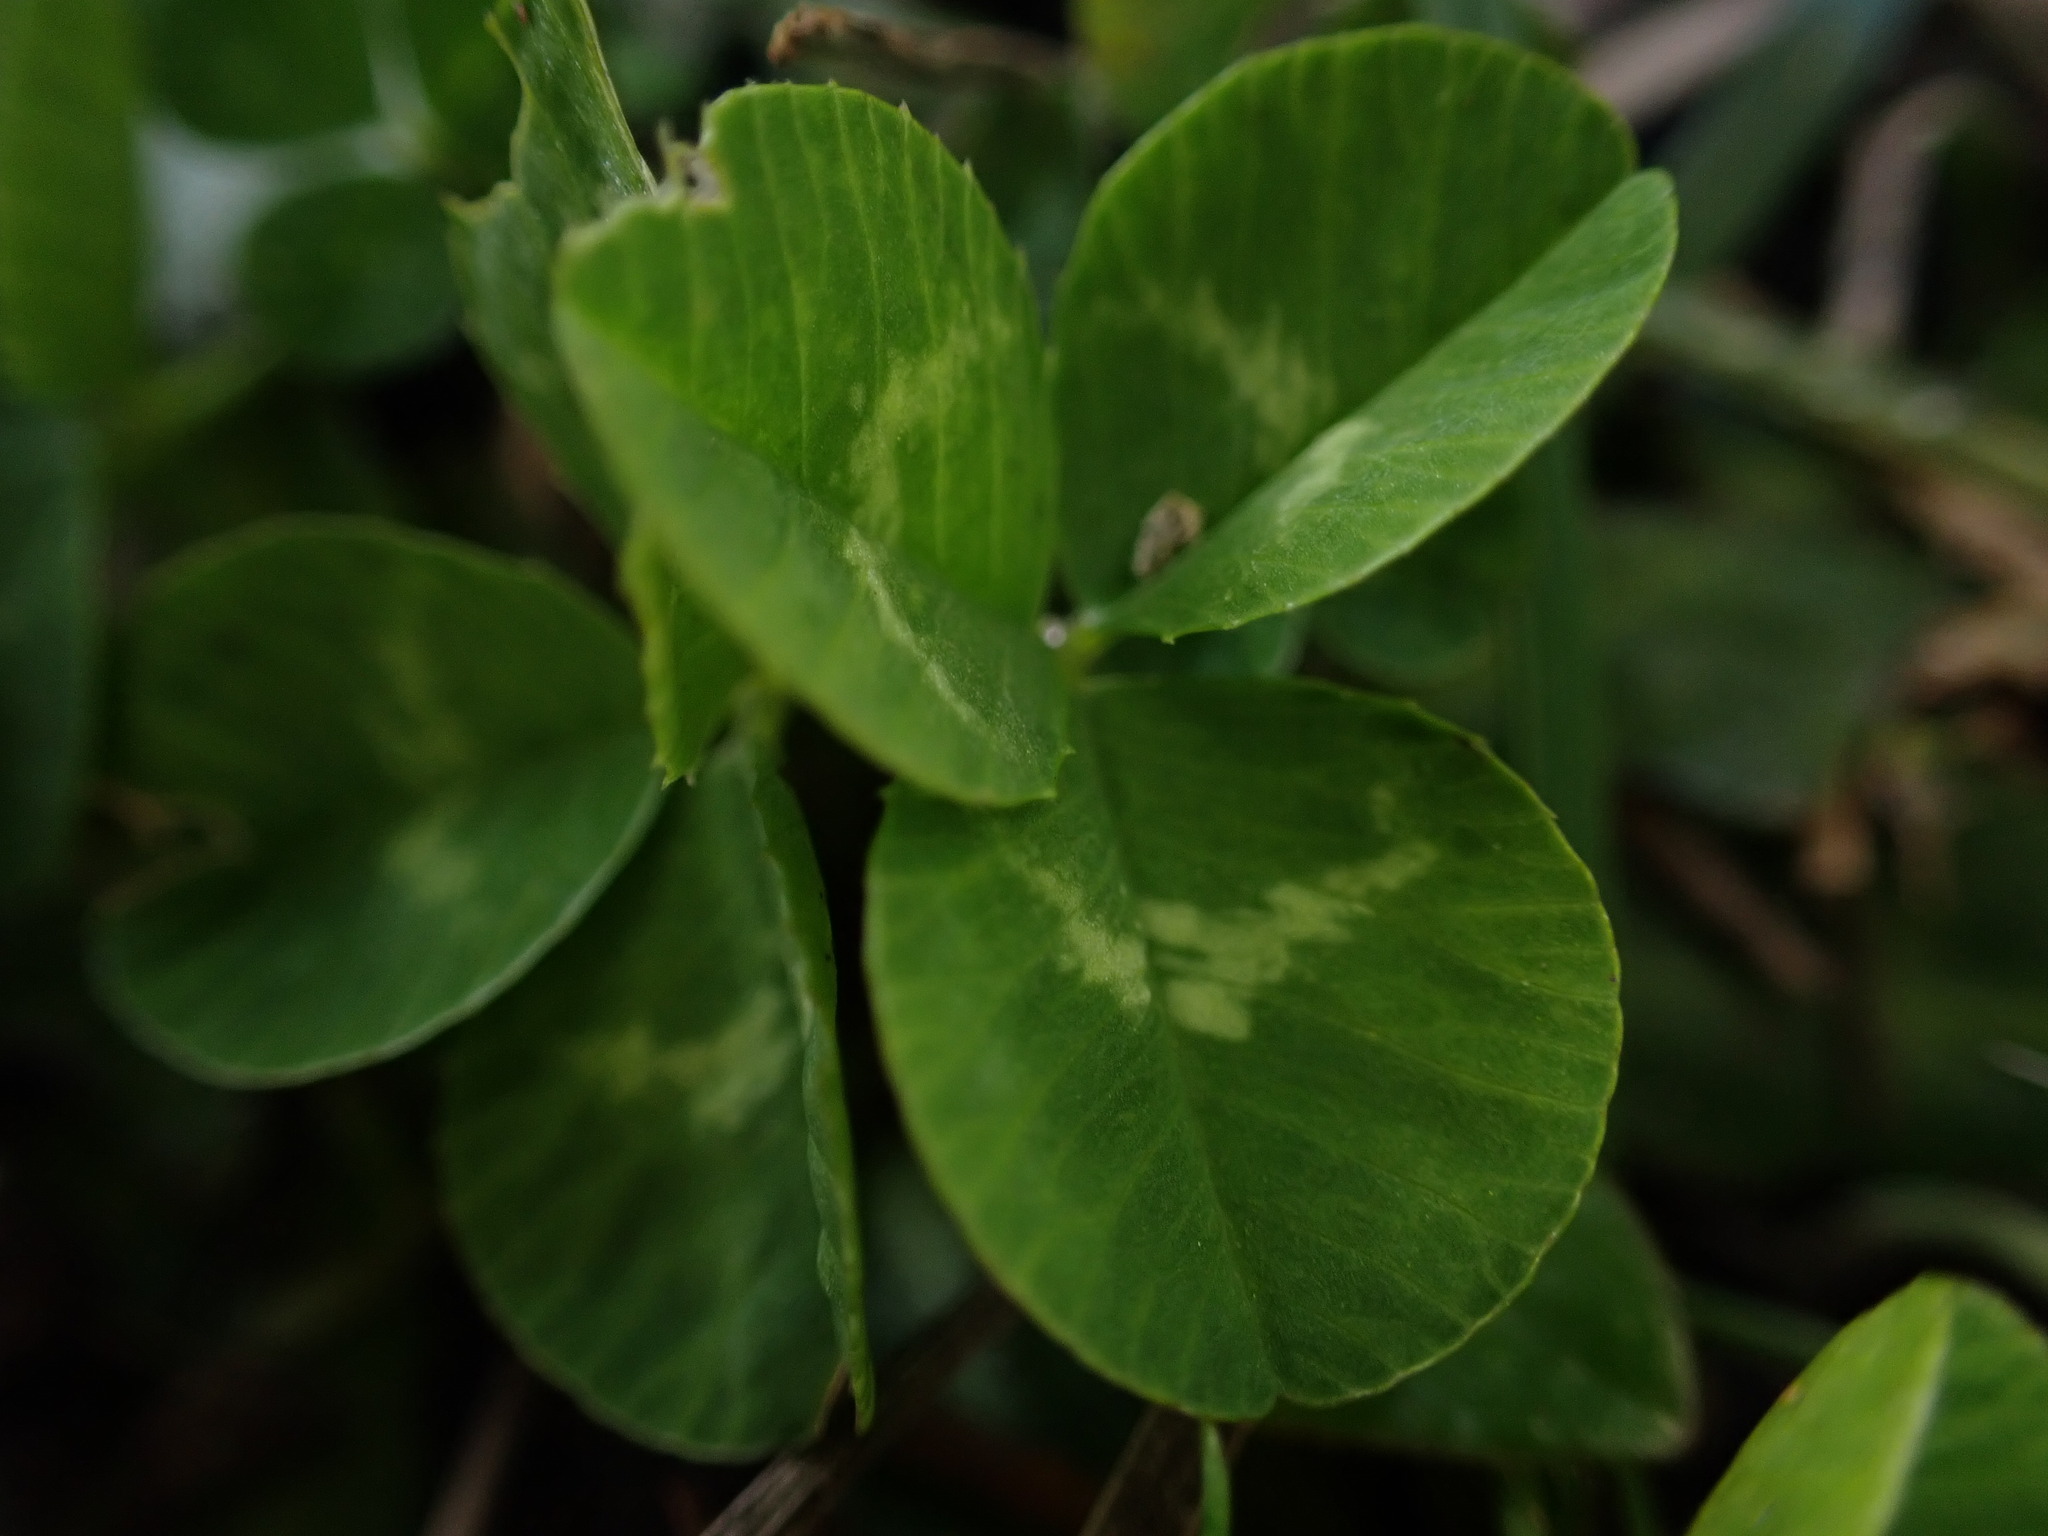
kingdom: Plantae
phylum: Tracheophyta
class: Magnoliopsida
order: Fabales
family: Fabaceae
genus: Trifolium
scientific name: Trifolium repens
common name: White clover
